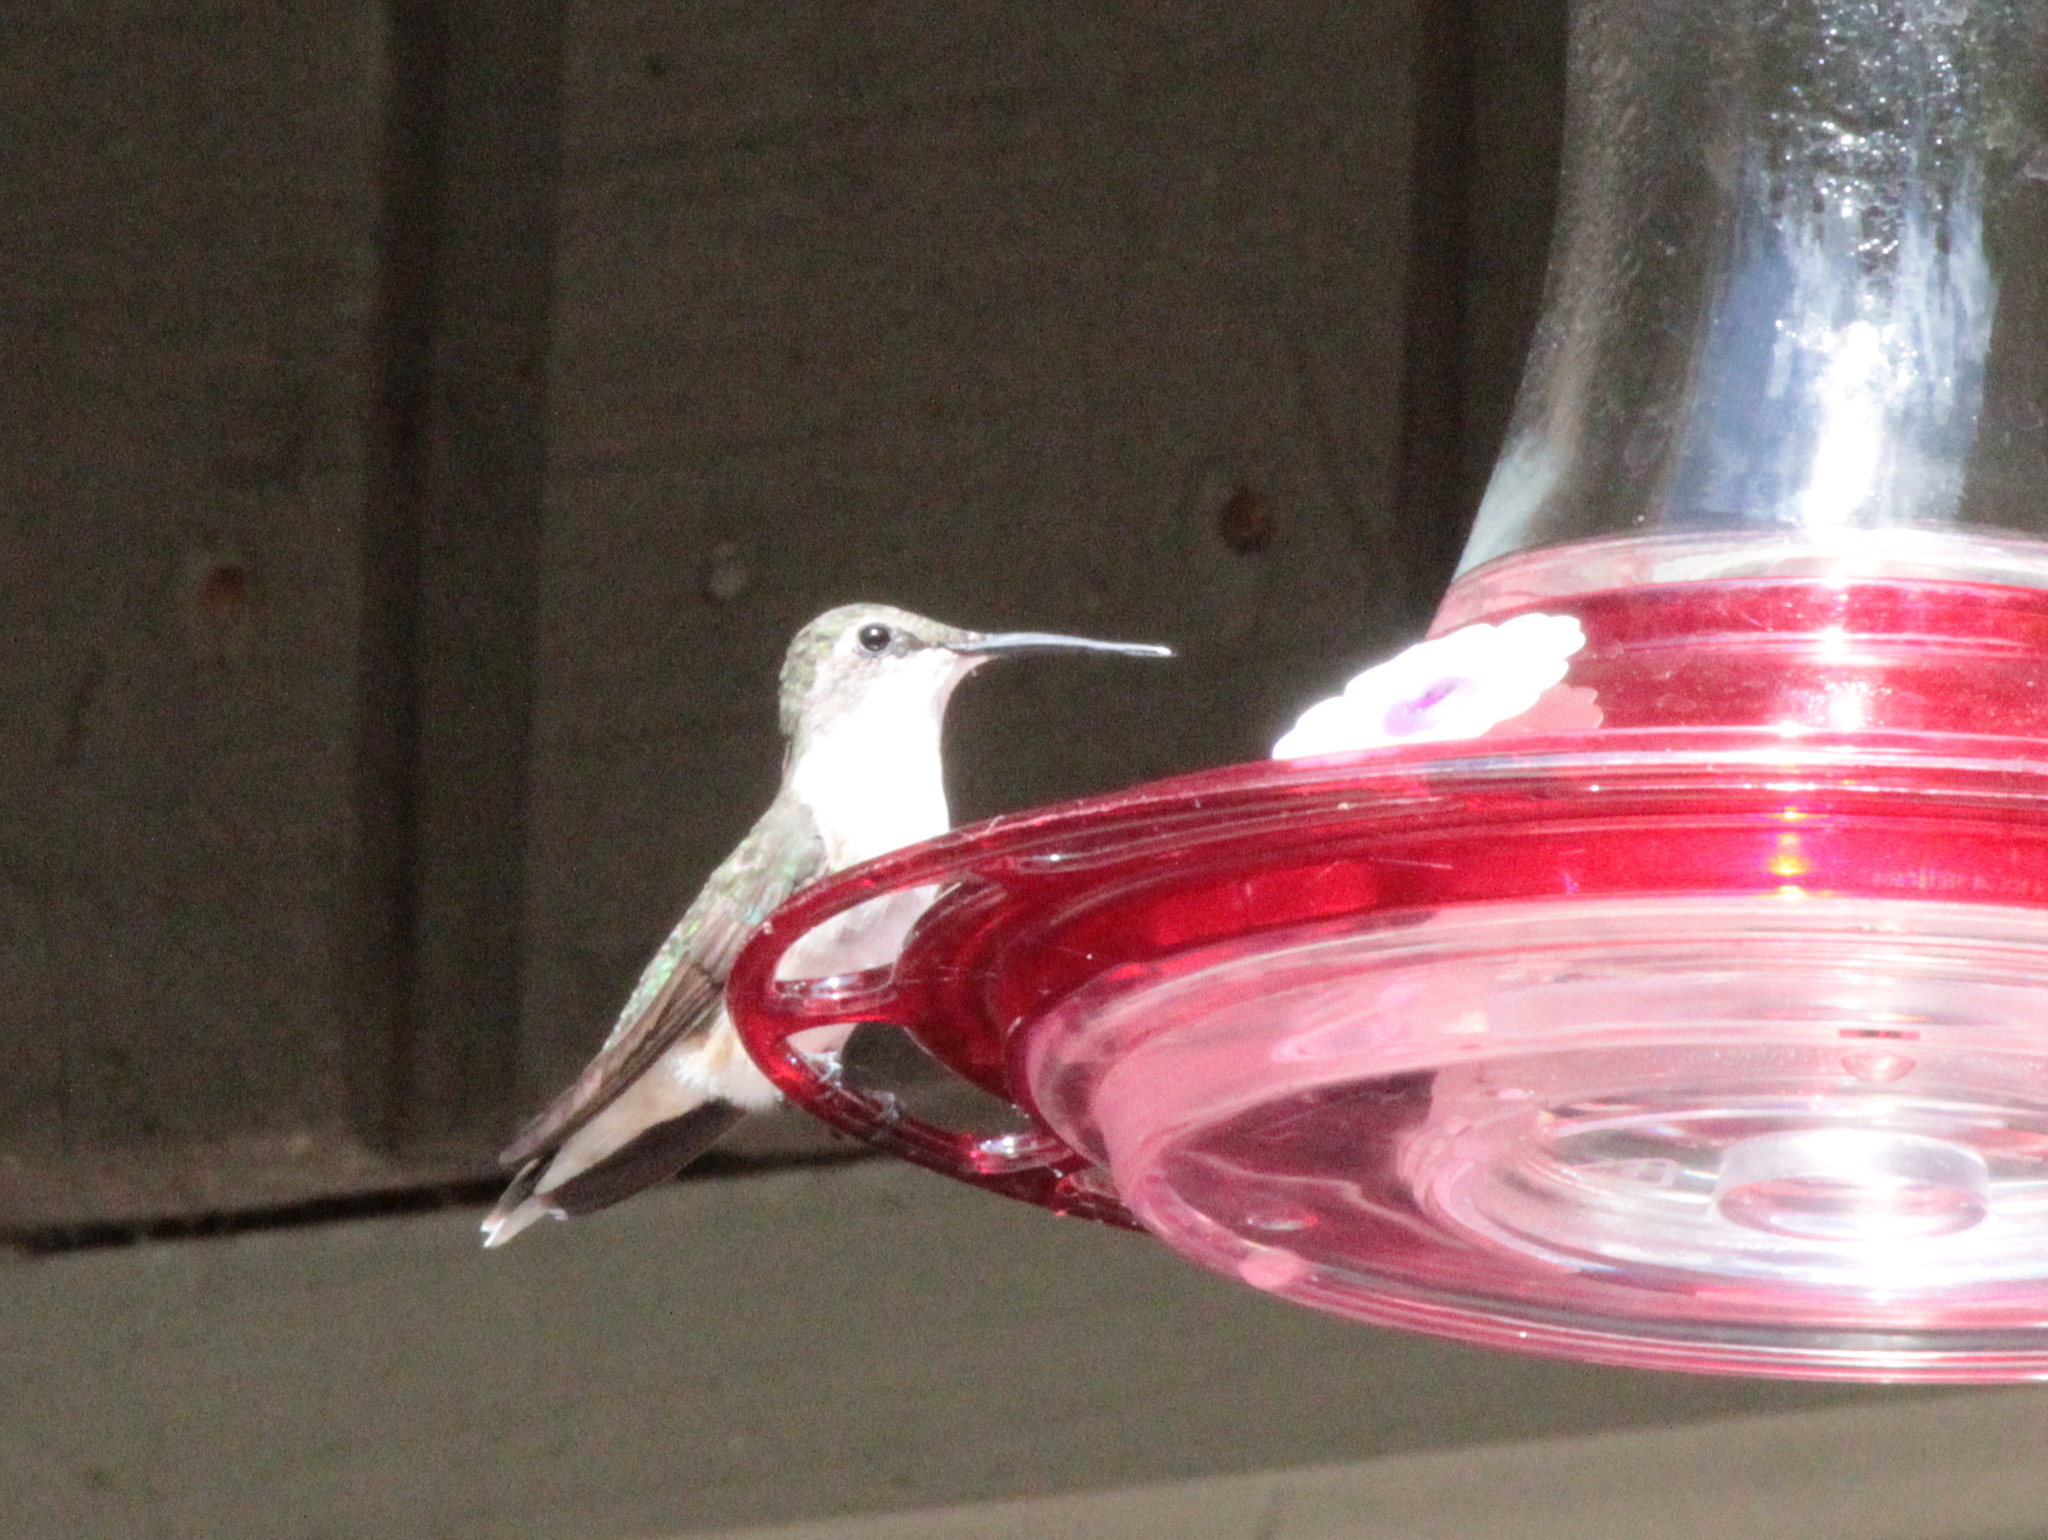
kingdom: Animalia
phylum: Chordata
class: Aves
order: Apodiformes
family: Trochilidae
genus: Archilochus
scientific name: Archilochus colubris
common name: Ruby-throated hummingbird
